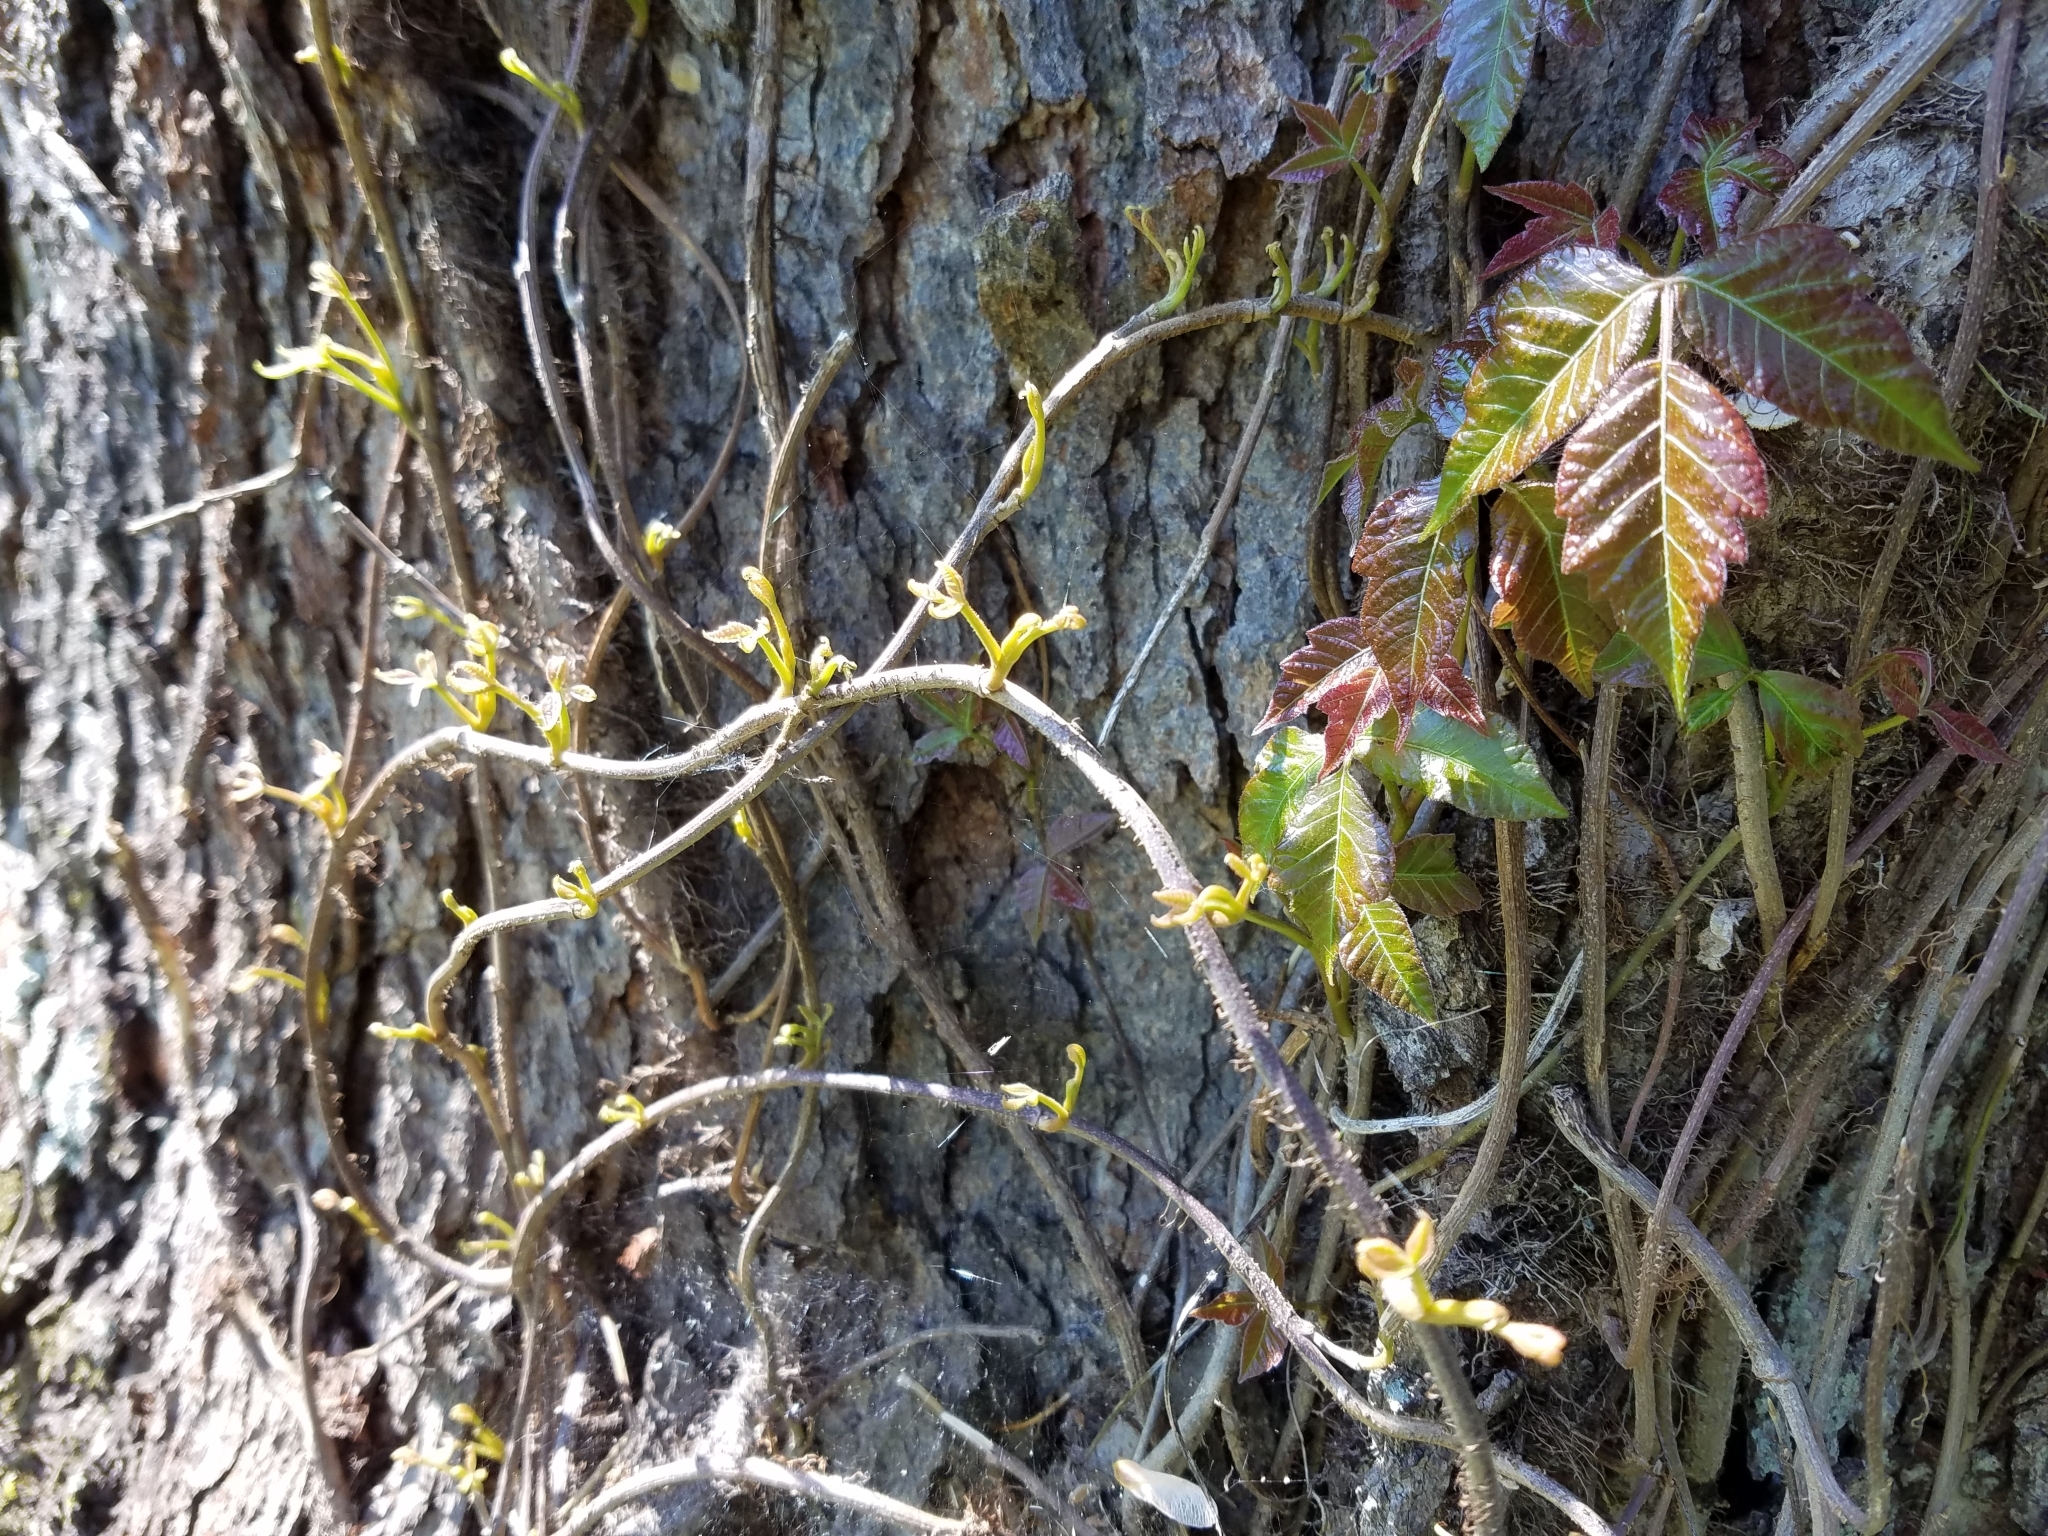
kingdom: Plantae
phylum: Tracheophyta
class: Magnoliopsida
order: Sapindales
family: Anacardiaceae
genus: Toxicodendron
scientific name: Toxicodendron radicans
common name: Poison ivy
